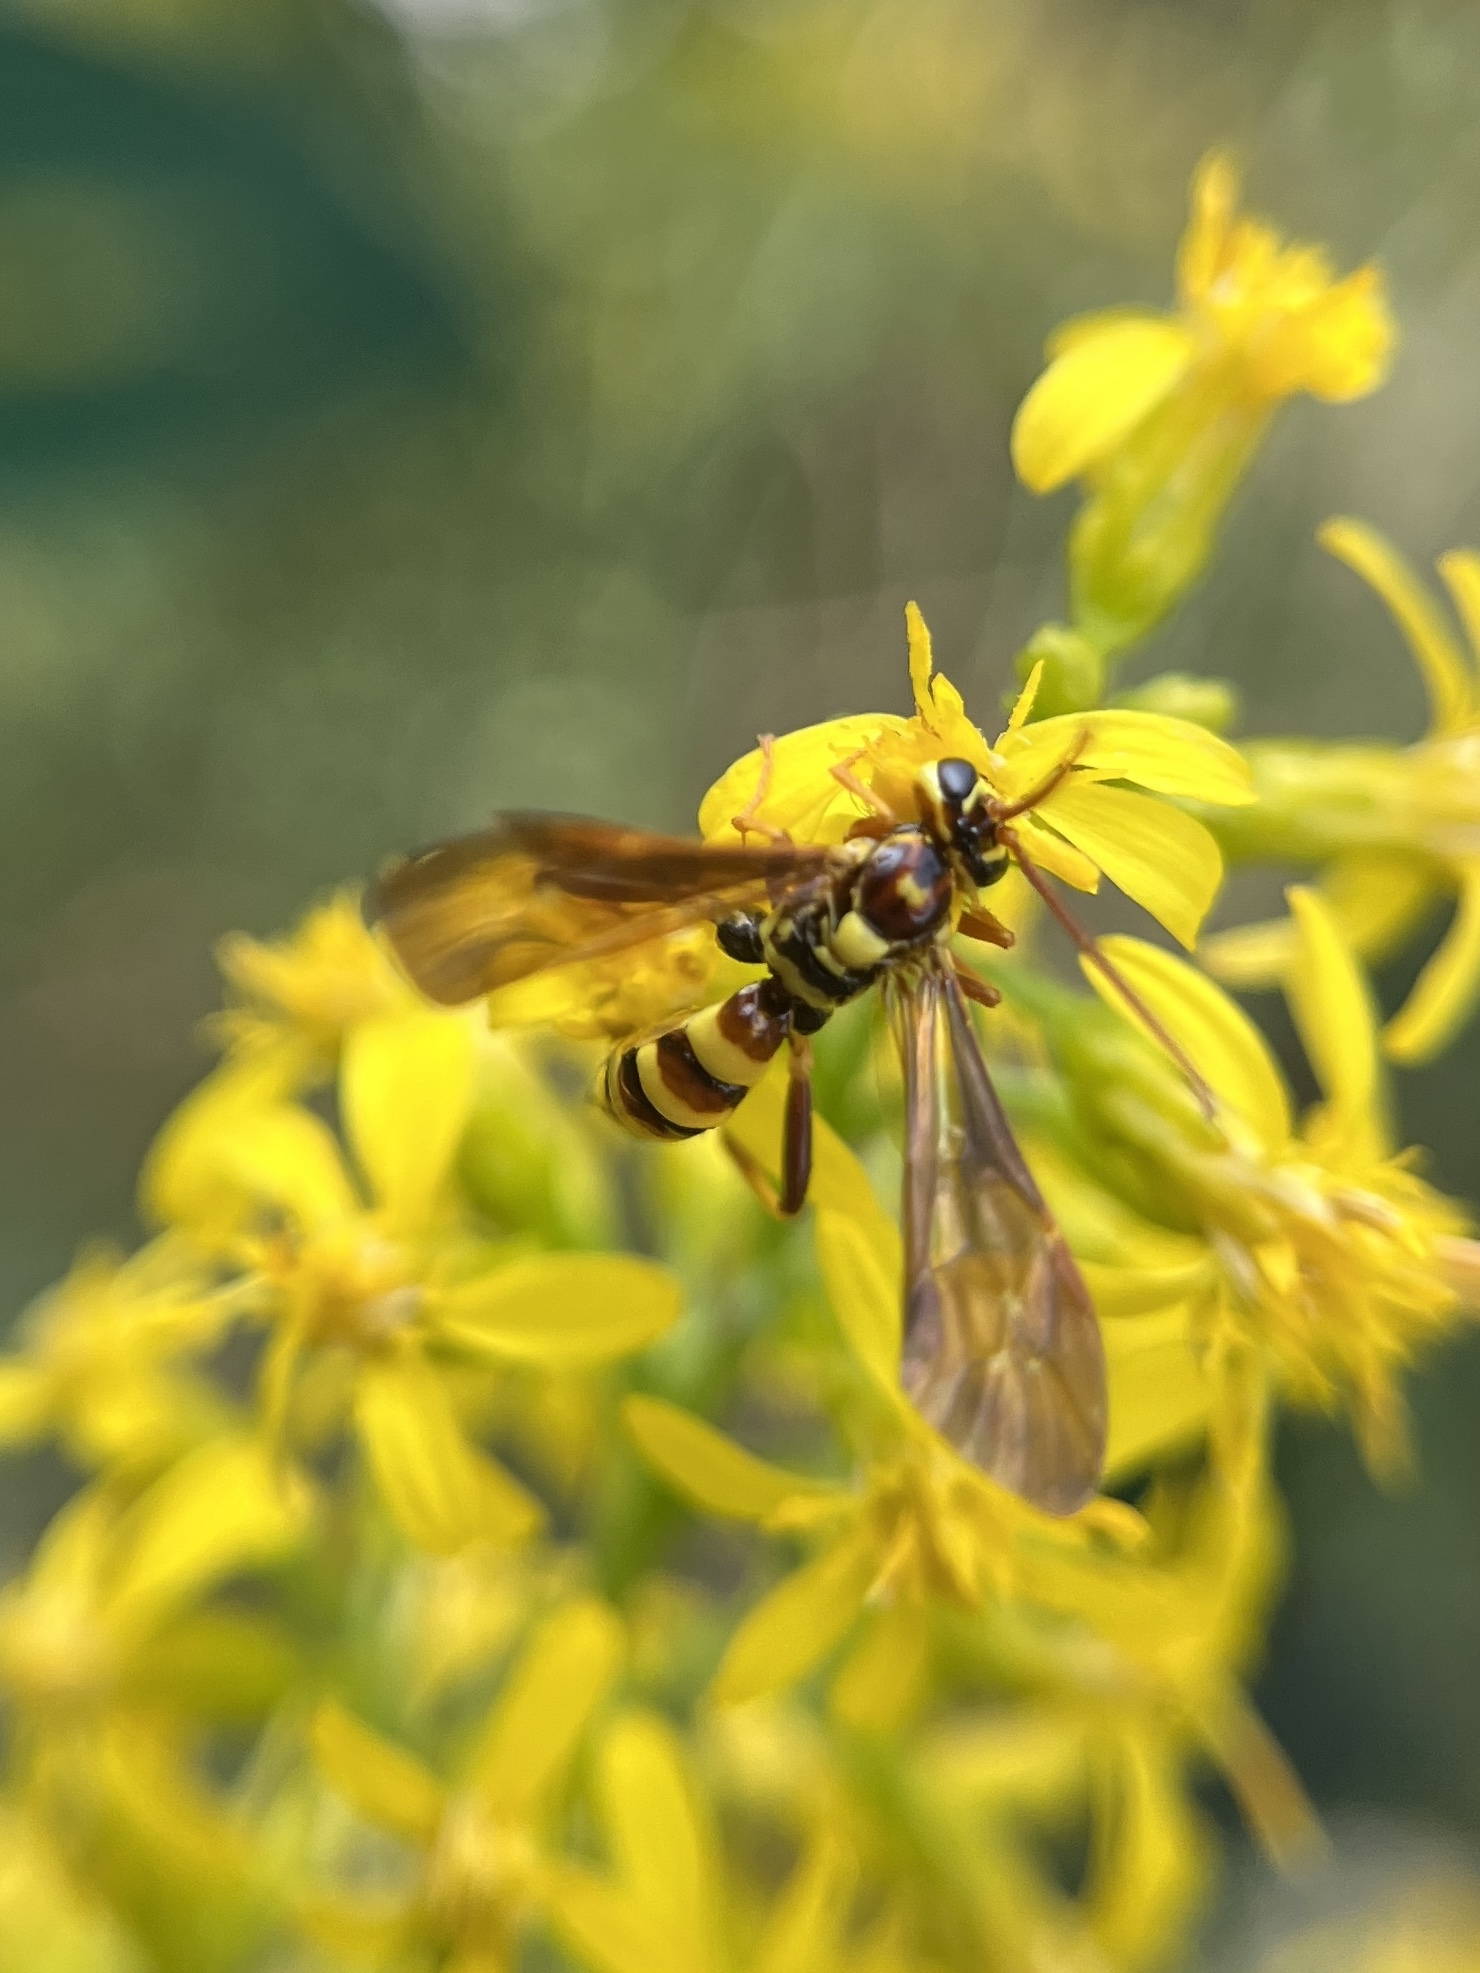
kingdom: Animalia
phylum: Arthropoda
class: Insecta
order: Hymenoptera
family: Ichneumonidae
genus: Ceratogastra
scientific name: Ceratogastra ornata
